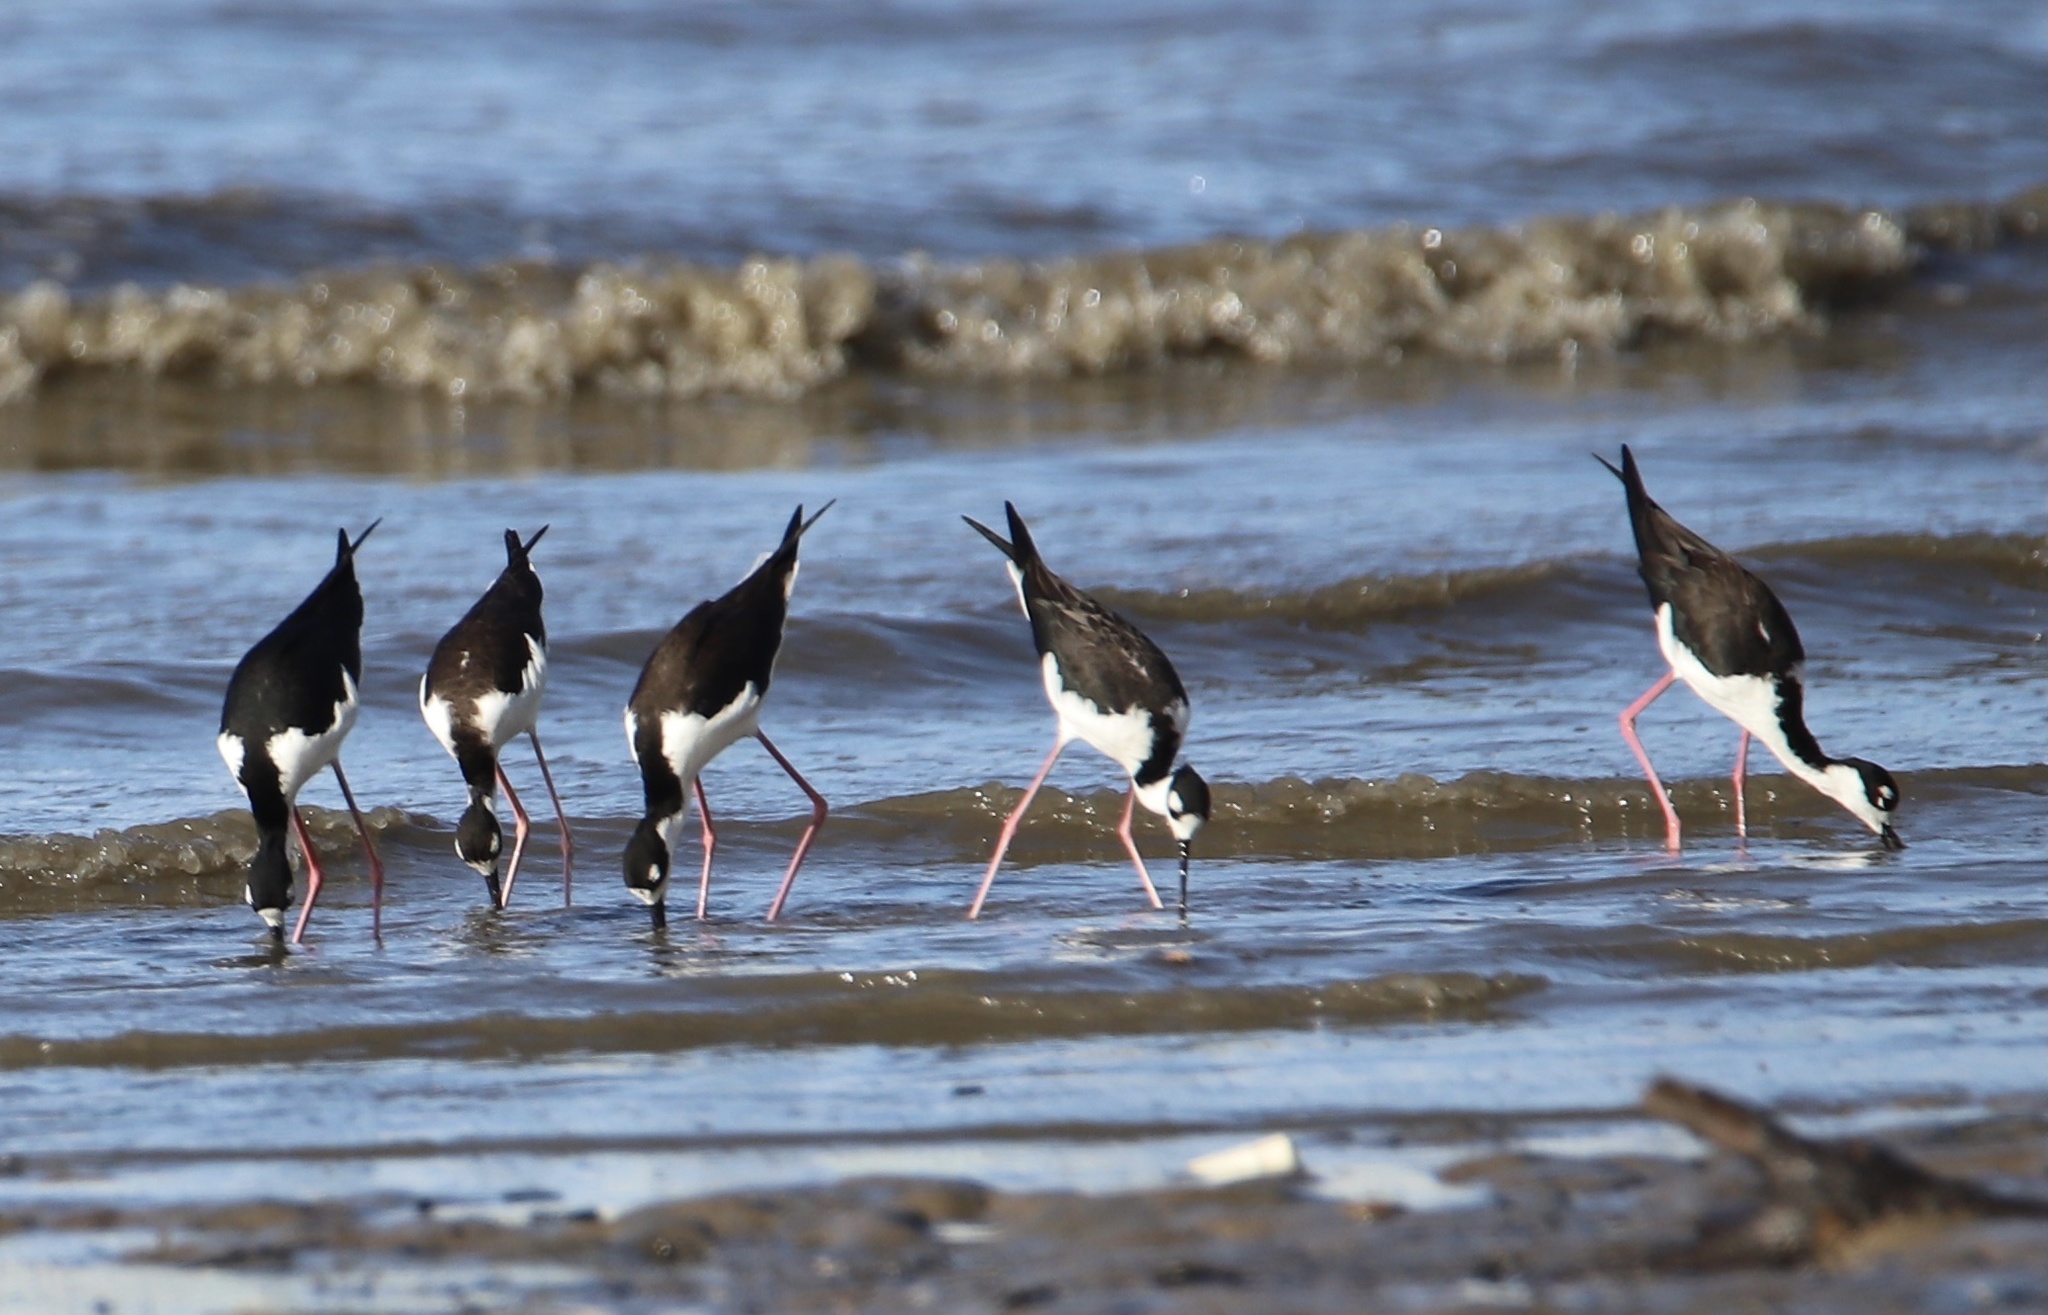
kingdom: Animalia
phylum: Chordata
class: Aves
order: Charadriiformes
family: Recurvirostridae
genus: Himantopus
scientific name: Himantopus mexicanus
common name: Black-necked stilt
